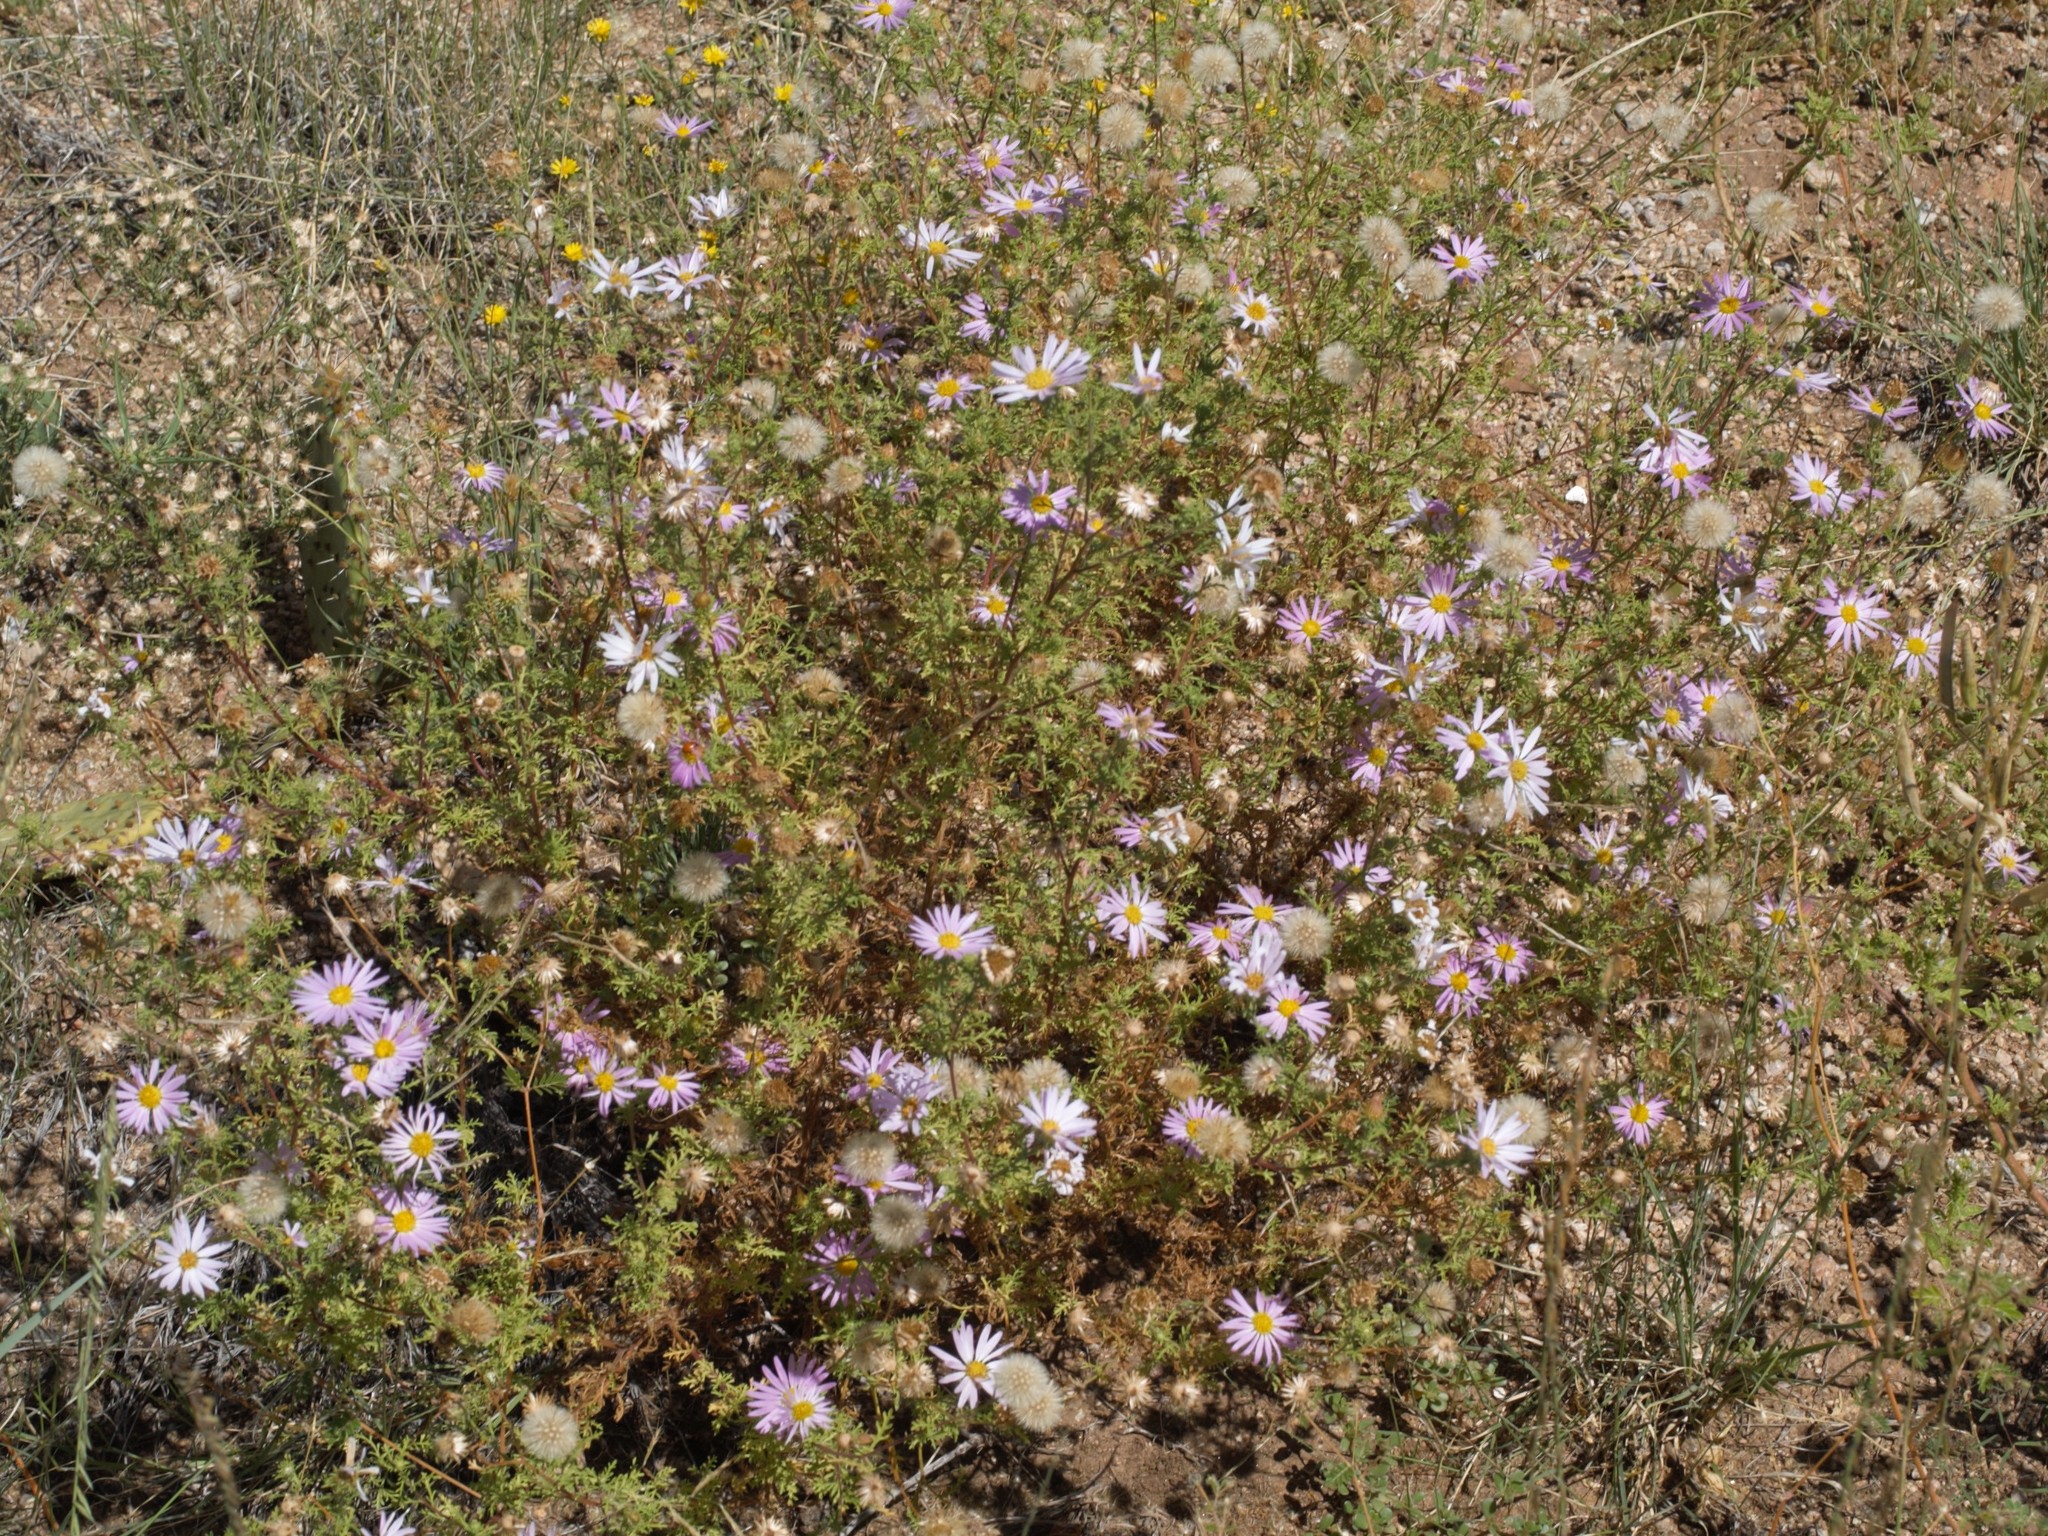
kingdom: Plantae
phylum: Tracheophyta
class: Magnoliopsida
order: Asterales
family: Asteraceae
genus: Machaeranthera
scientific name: Machaeranthera tanacetifolia
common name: Tansy-aster
